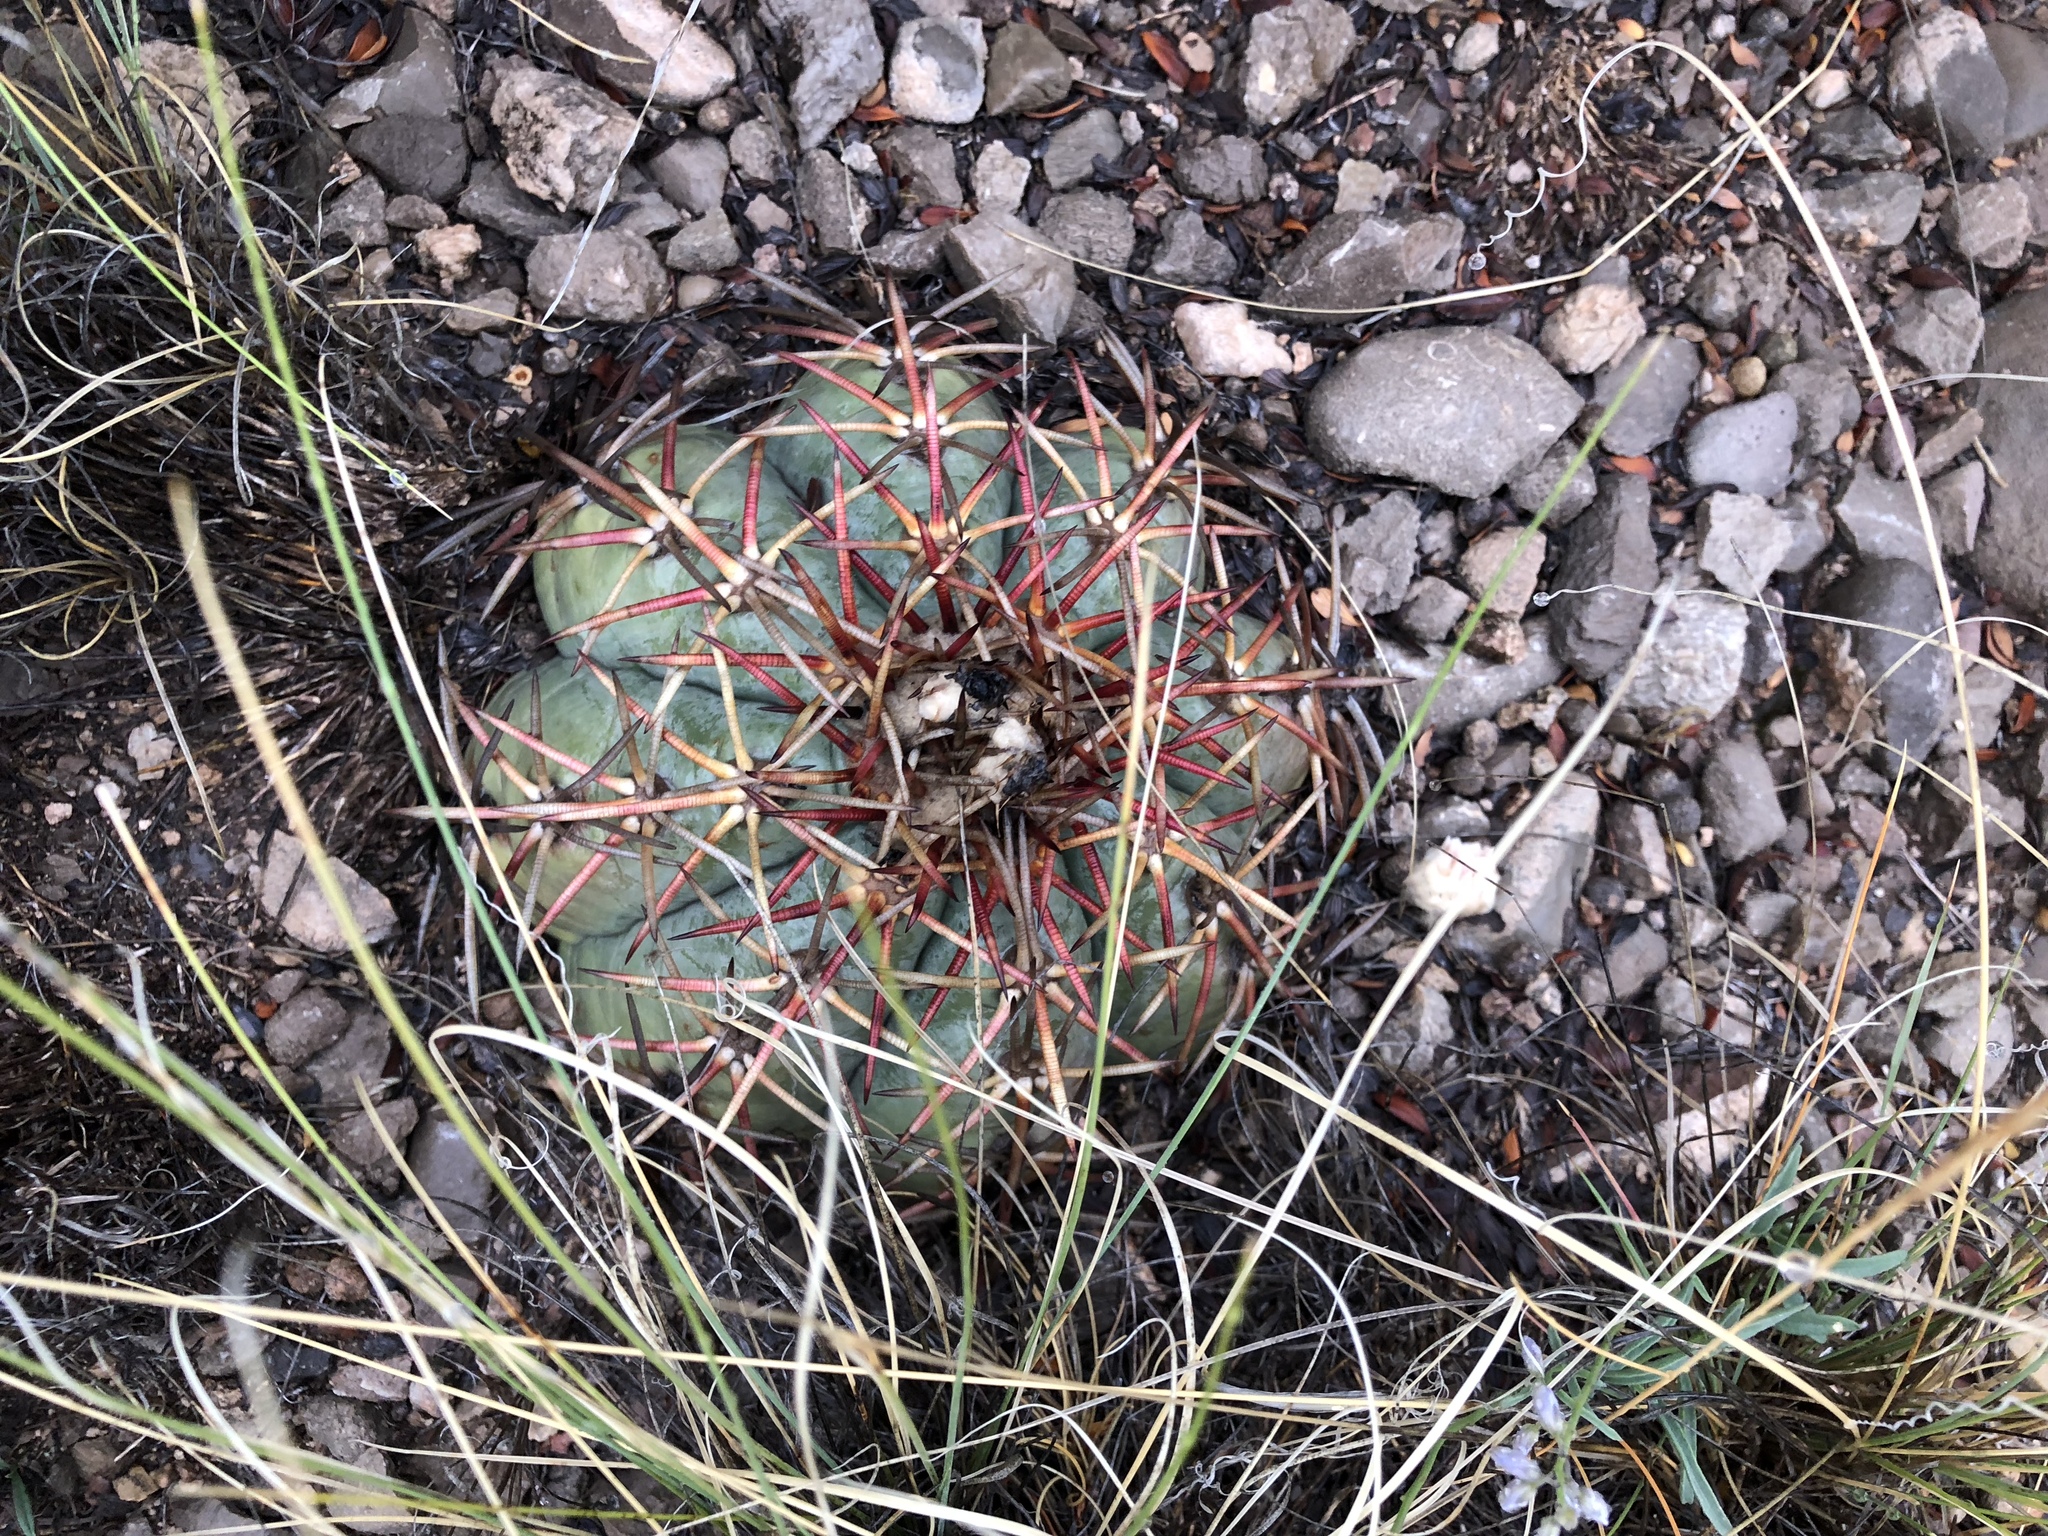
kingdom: Plantae
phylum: Tracheophyta
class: Magnoliopsida
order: Caryophyllales
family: Cactaceae
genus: Echinocactus
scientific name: Echinocactus horizonthalonius
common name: Devilshead
